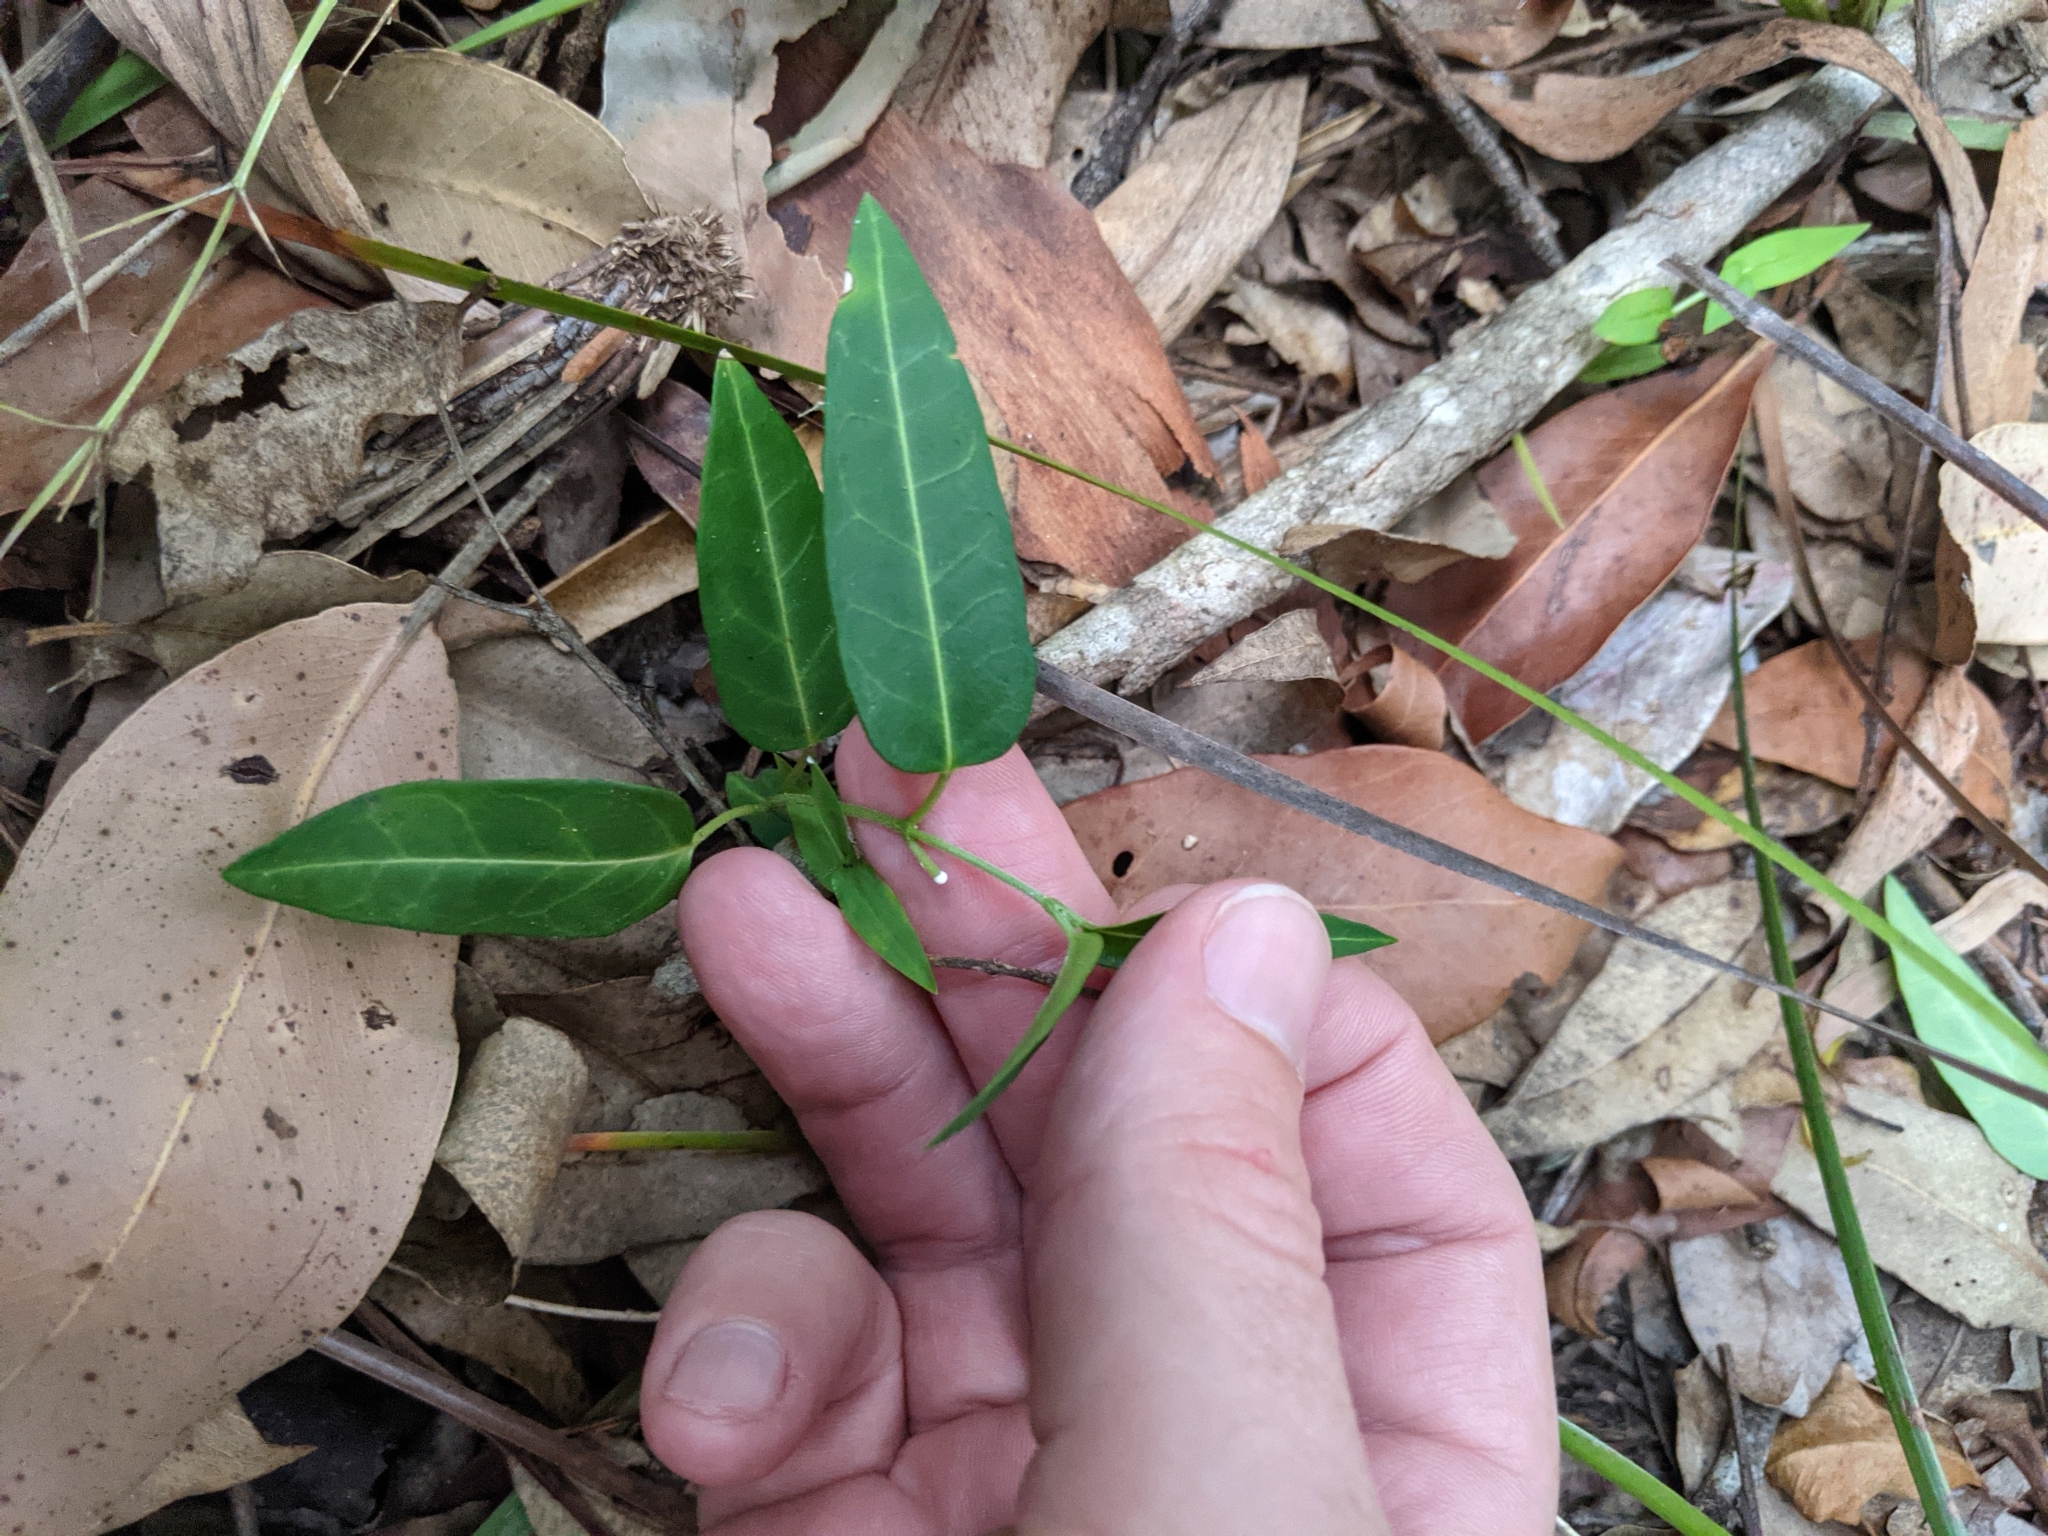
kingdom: Plantae
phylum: Tracheophyta
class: Magnoliopsida
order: Gentianales
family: Apocynaceae
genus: Leichhardtia
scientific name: Leichhardtia coronata
